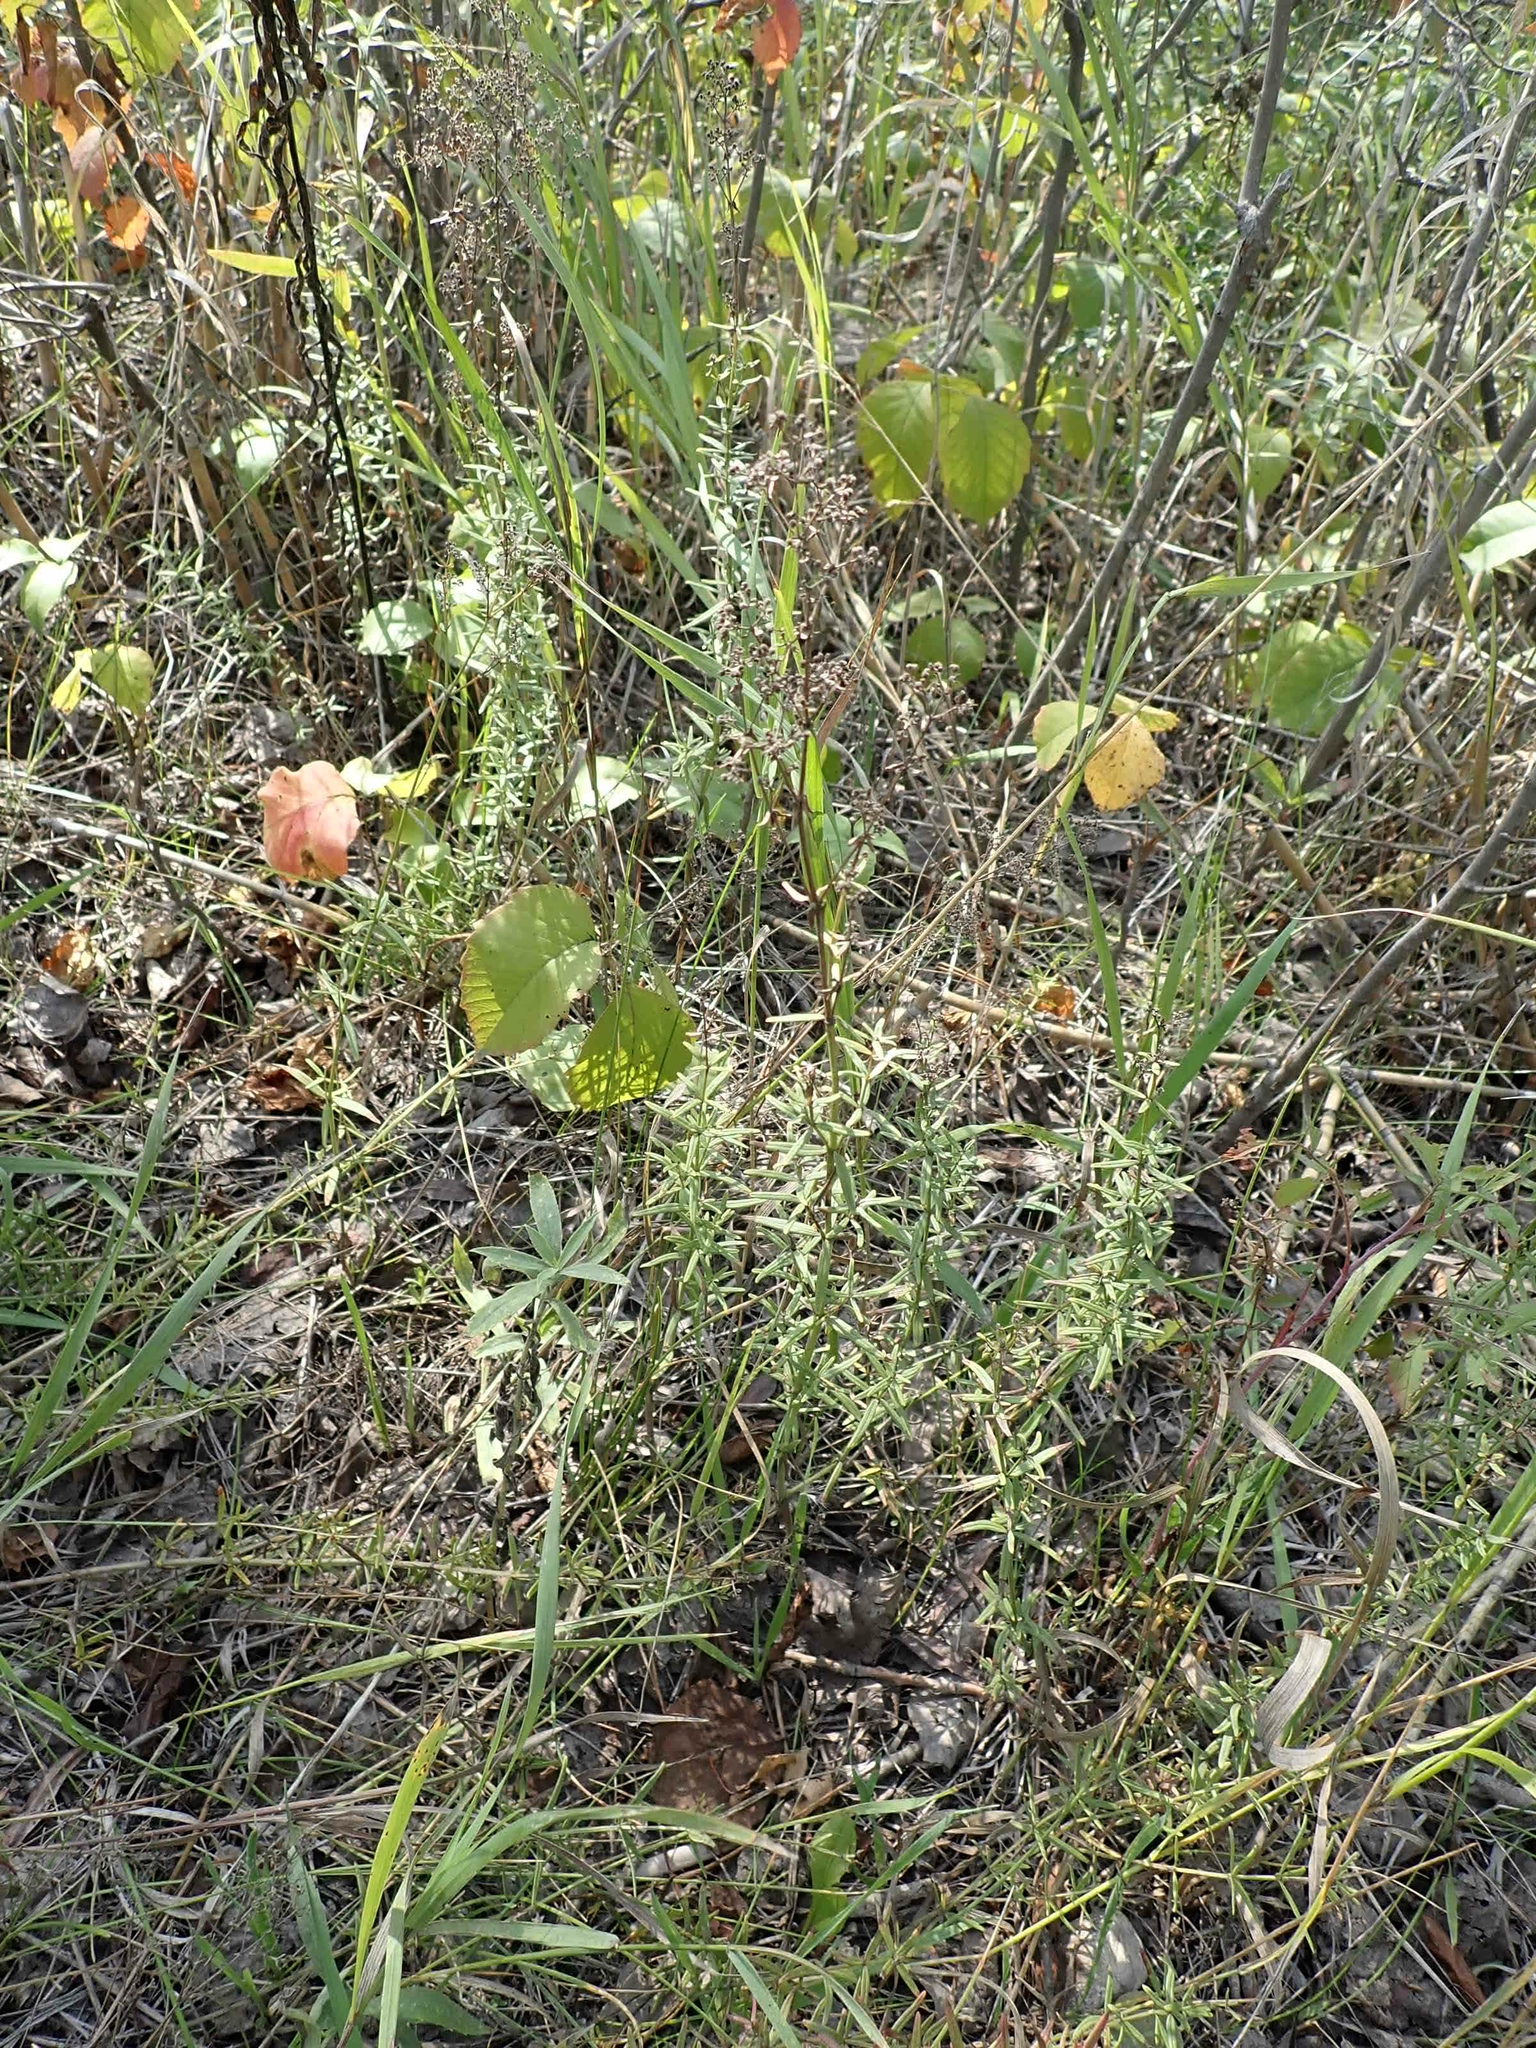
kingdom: Plantae
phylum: Tracheophyta
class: Magnoliopsida
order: Gentianales
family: Rubiaceae
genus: Galium
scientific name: Galium boreale
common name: Northern bedstraw
